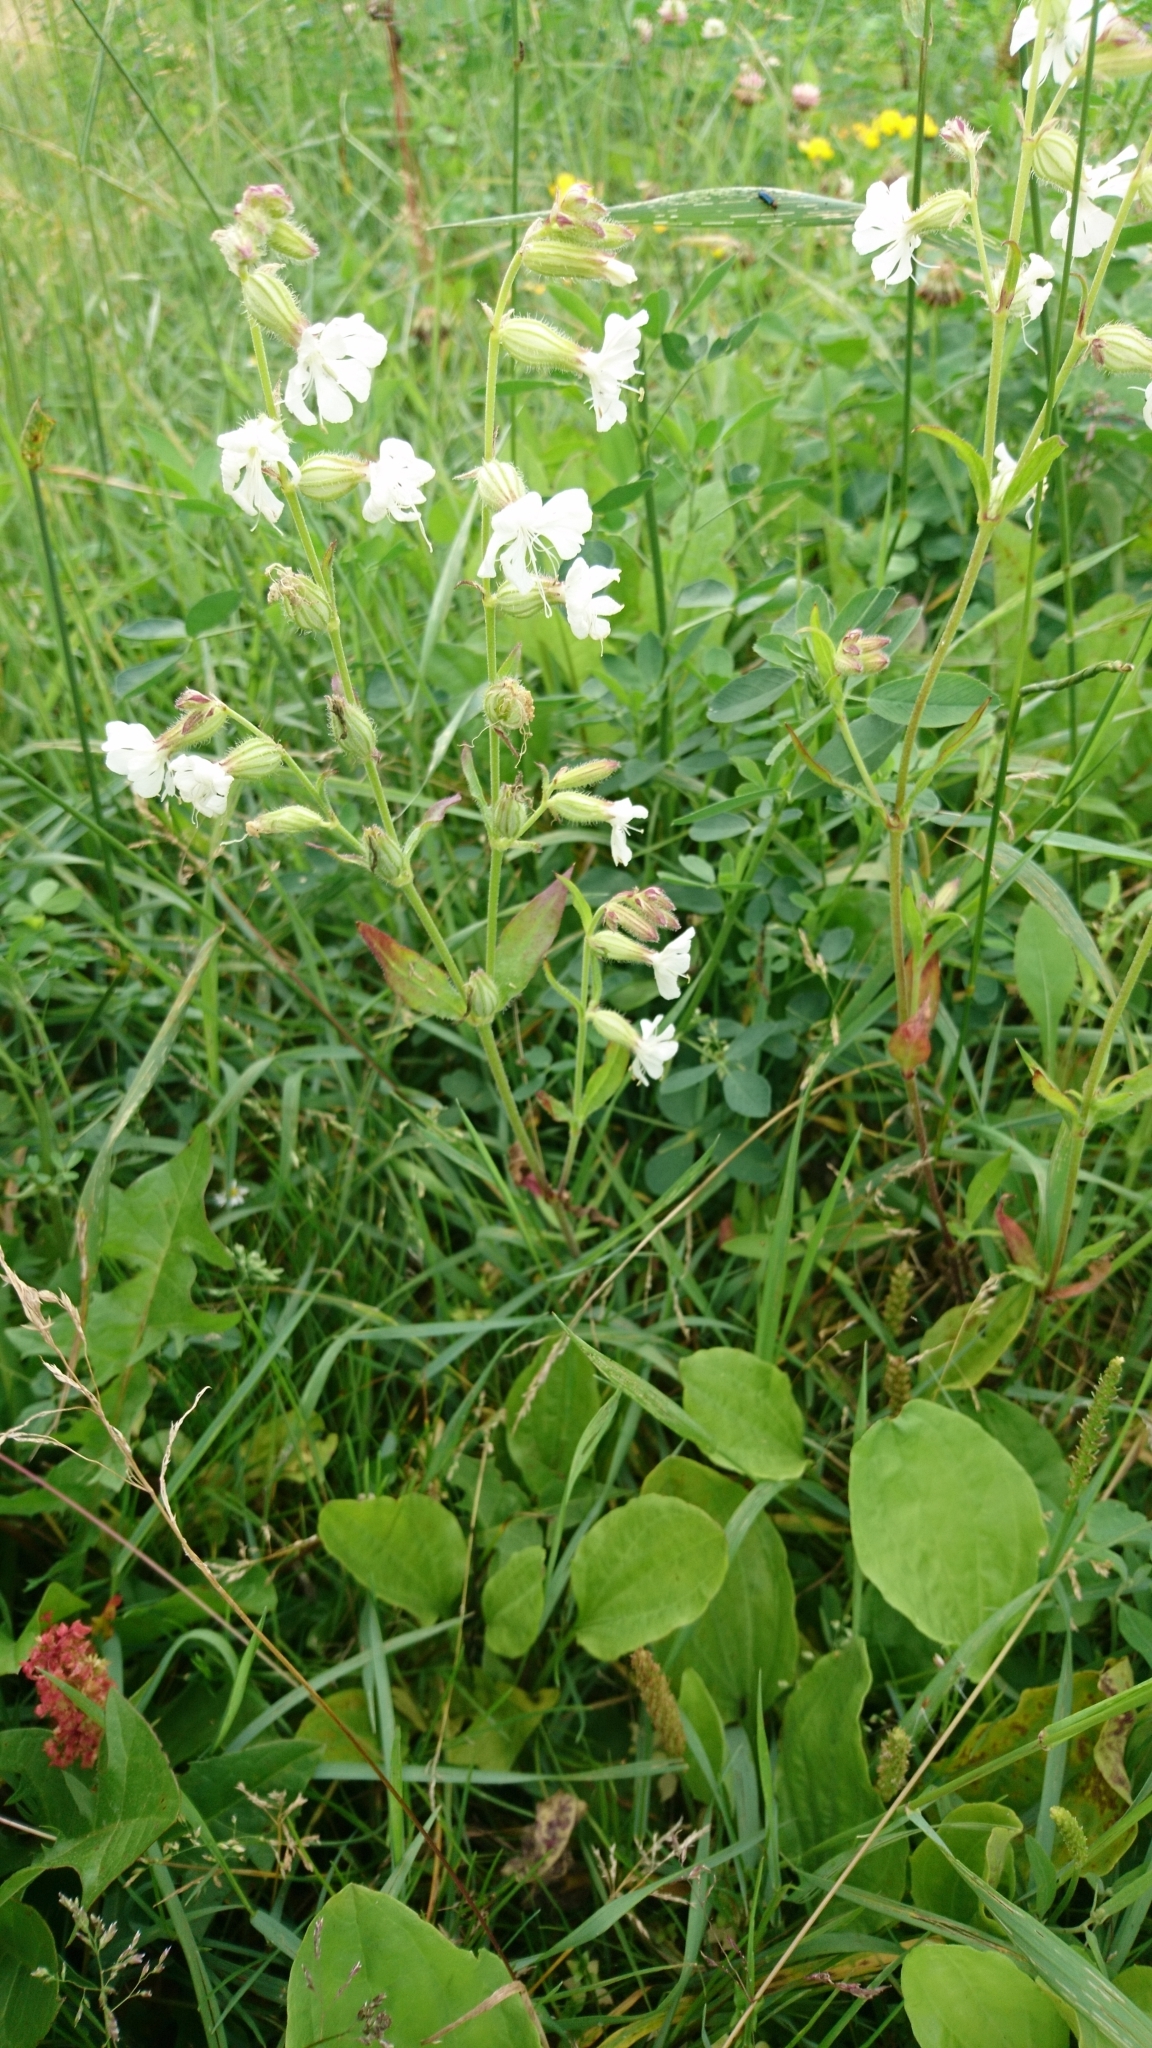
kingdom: Plantae
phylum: Tracheophyta
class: Magnoliopsida
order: Caryophyllales
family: Caryophyllaceae
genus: Silene
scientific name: Silene latifolia
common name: White campion
